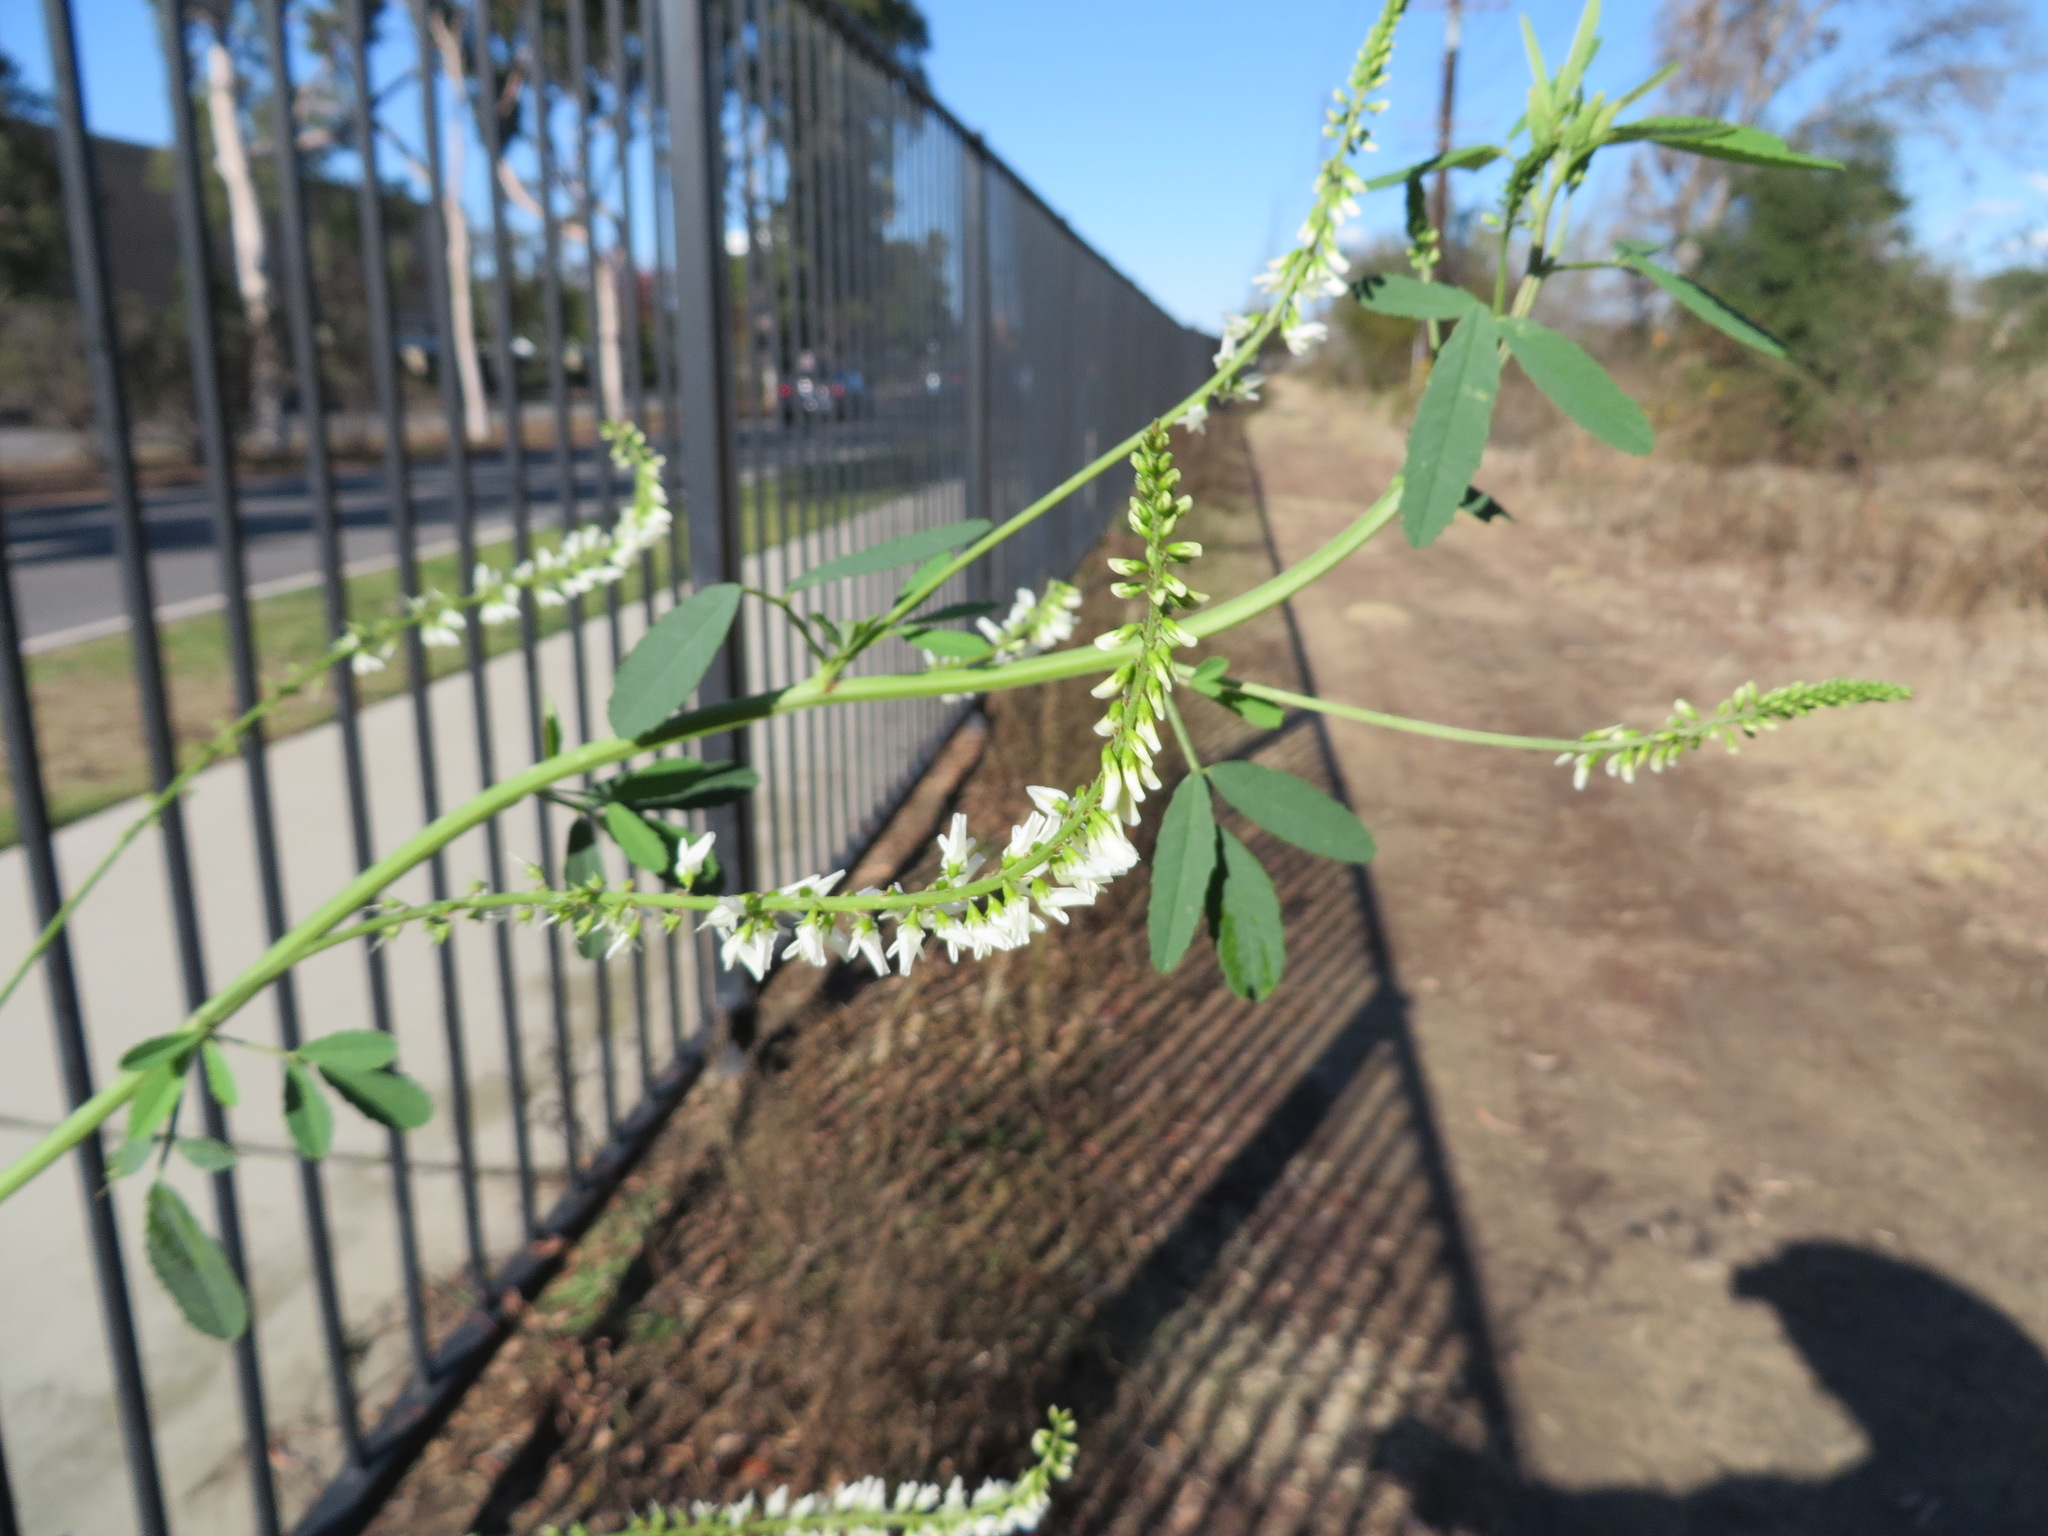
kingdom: Plantae
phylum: Tracheophyta
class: Magnoliopsida
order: Fabales
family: Fabaceae
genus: Melilotus
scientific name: Melilotus albus
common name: White melilot
